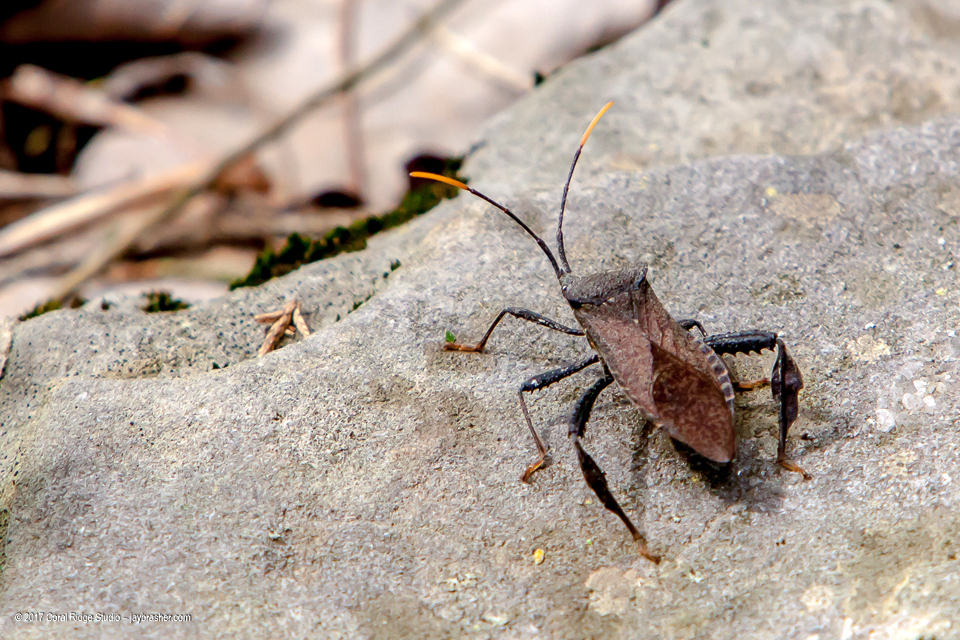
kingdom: Animalia
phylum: Arthropoda
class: Insecta
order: Hemiptera
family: Coreidae
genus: Acanthocephala
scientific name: Acanthocephala terminalis
